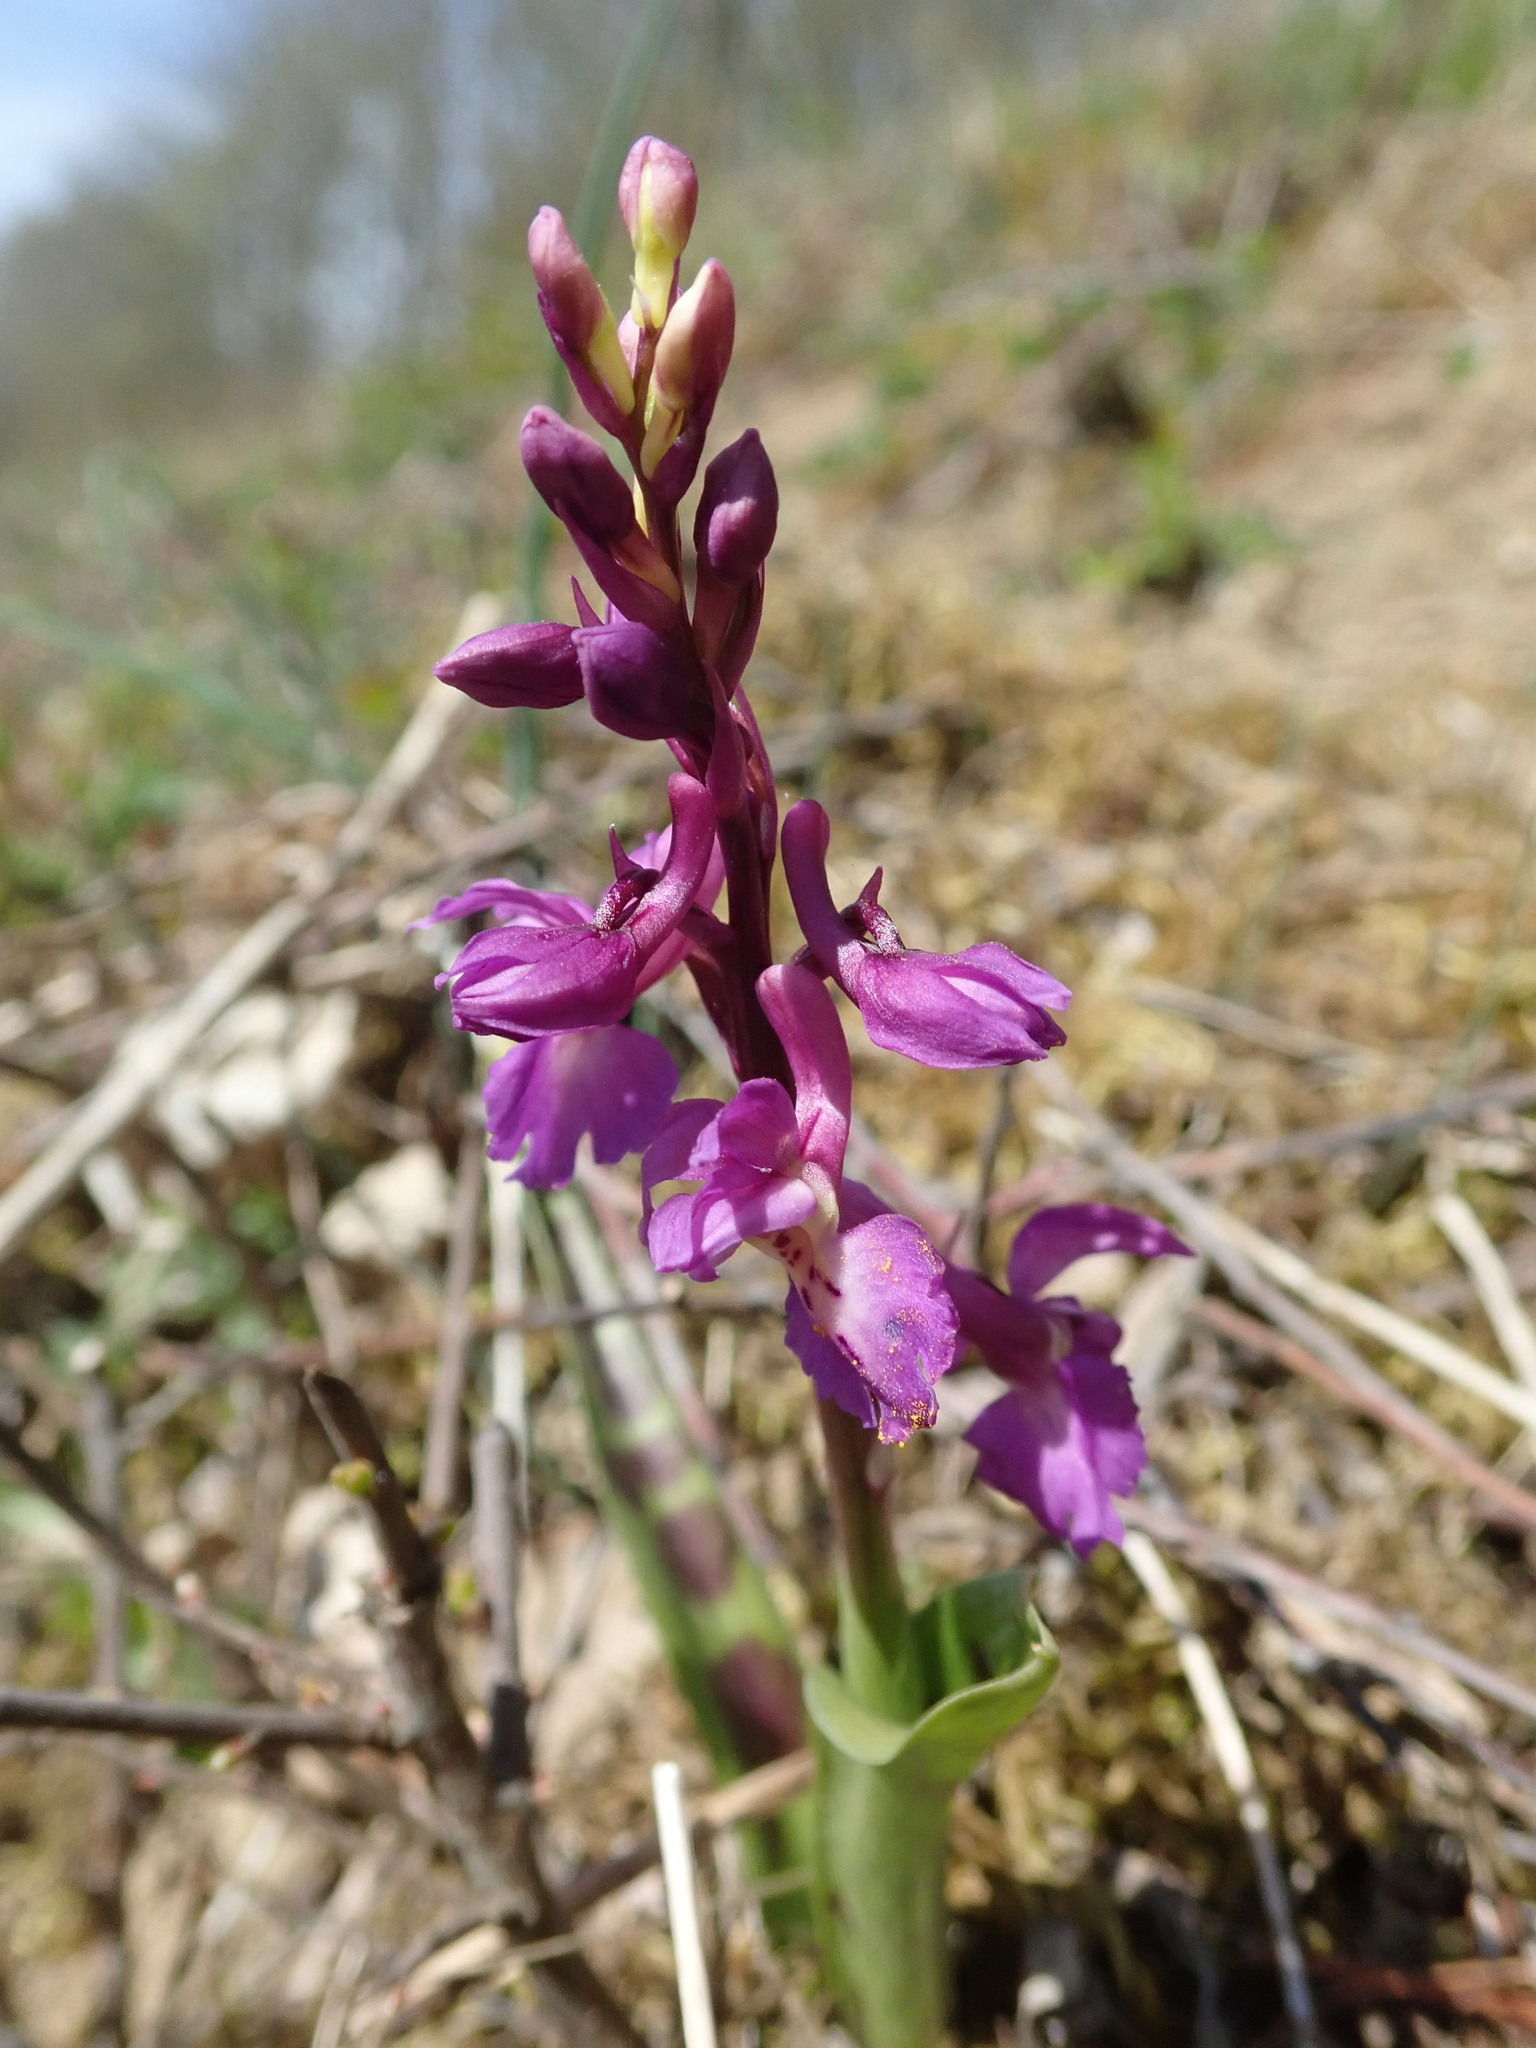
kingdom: Plantae
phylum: Tracheophyta
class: Liliopsida
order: Asparagales
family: Orchidaceae
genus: Orchis
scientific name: Orchis mascula
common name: Early-purple orchid
